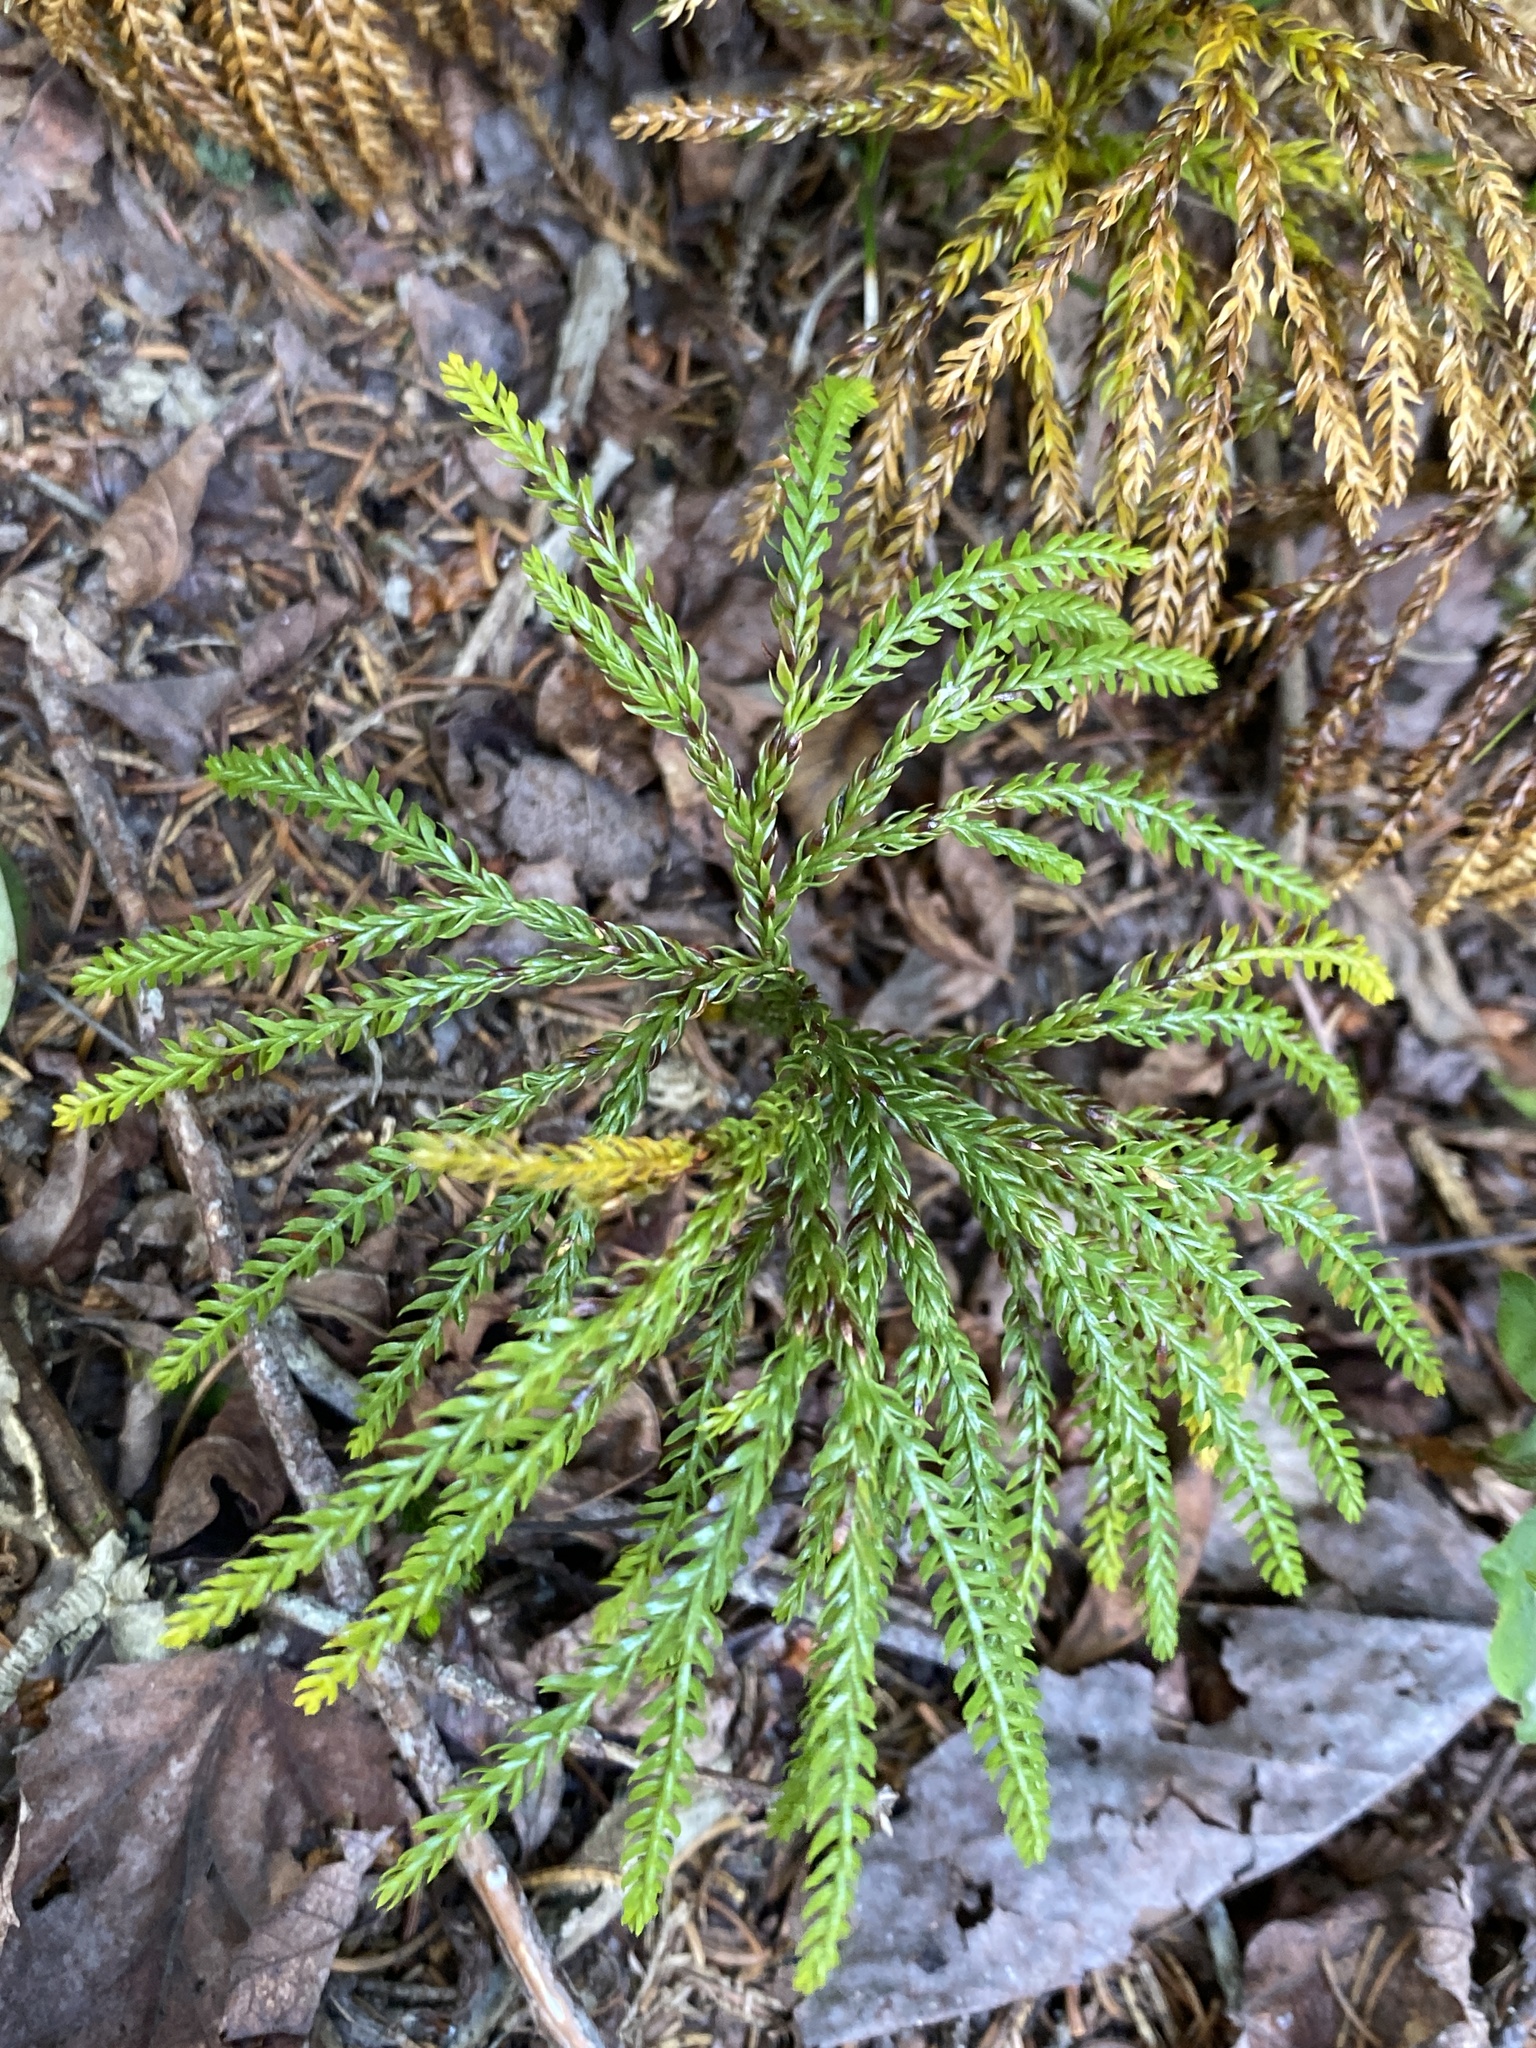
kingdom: Plantae
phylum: Tracheophyta
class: Lycopodiopsida
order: Lycopodiales
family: Lycopodiaceae
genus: Dendrolycopodium
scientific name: Dendrolycopodium obscurum
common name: Common ground-pine
